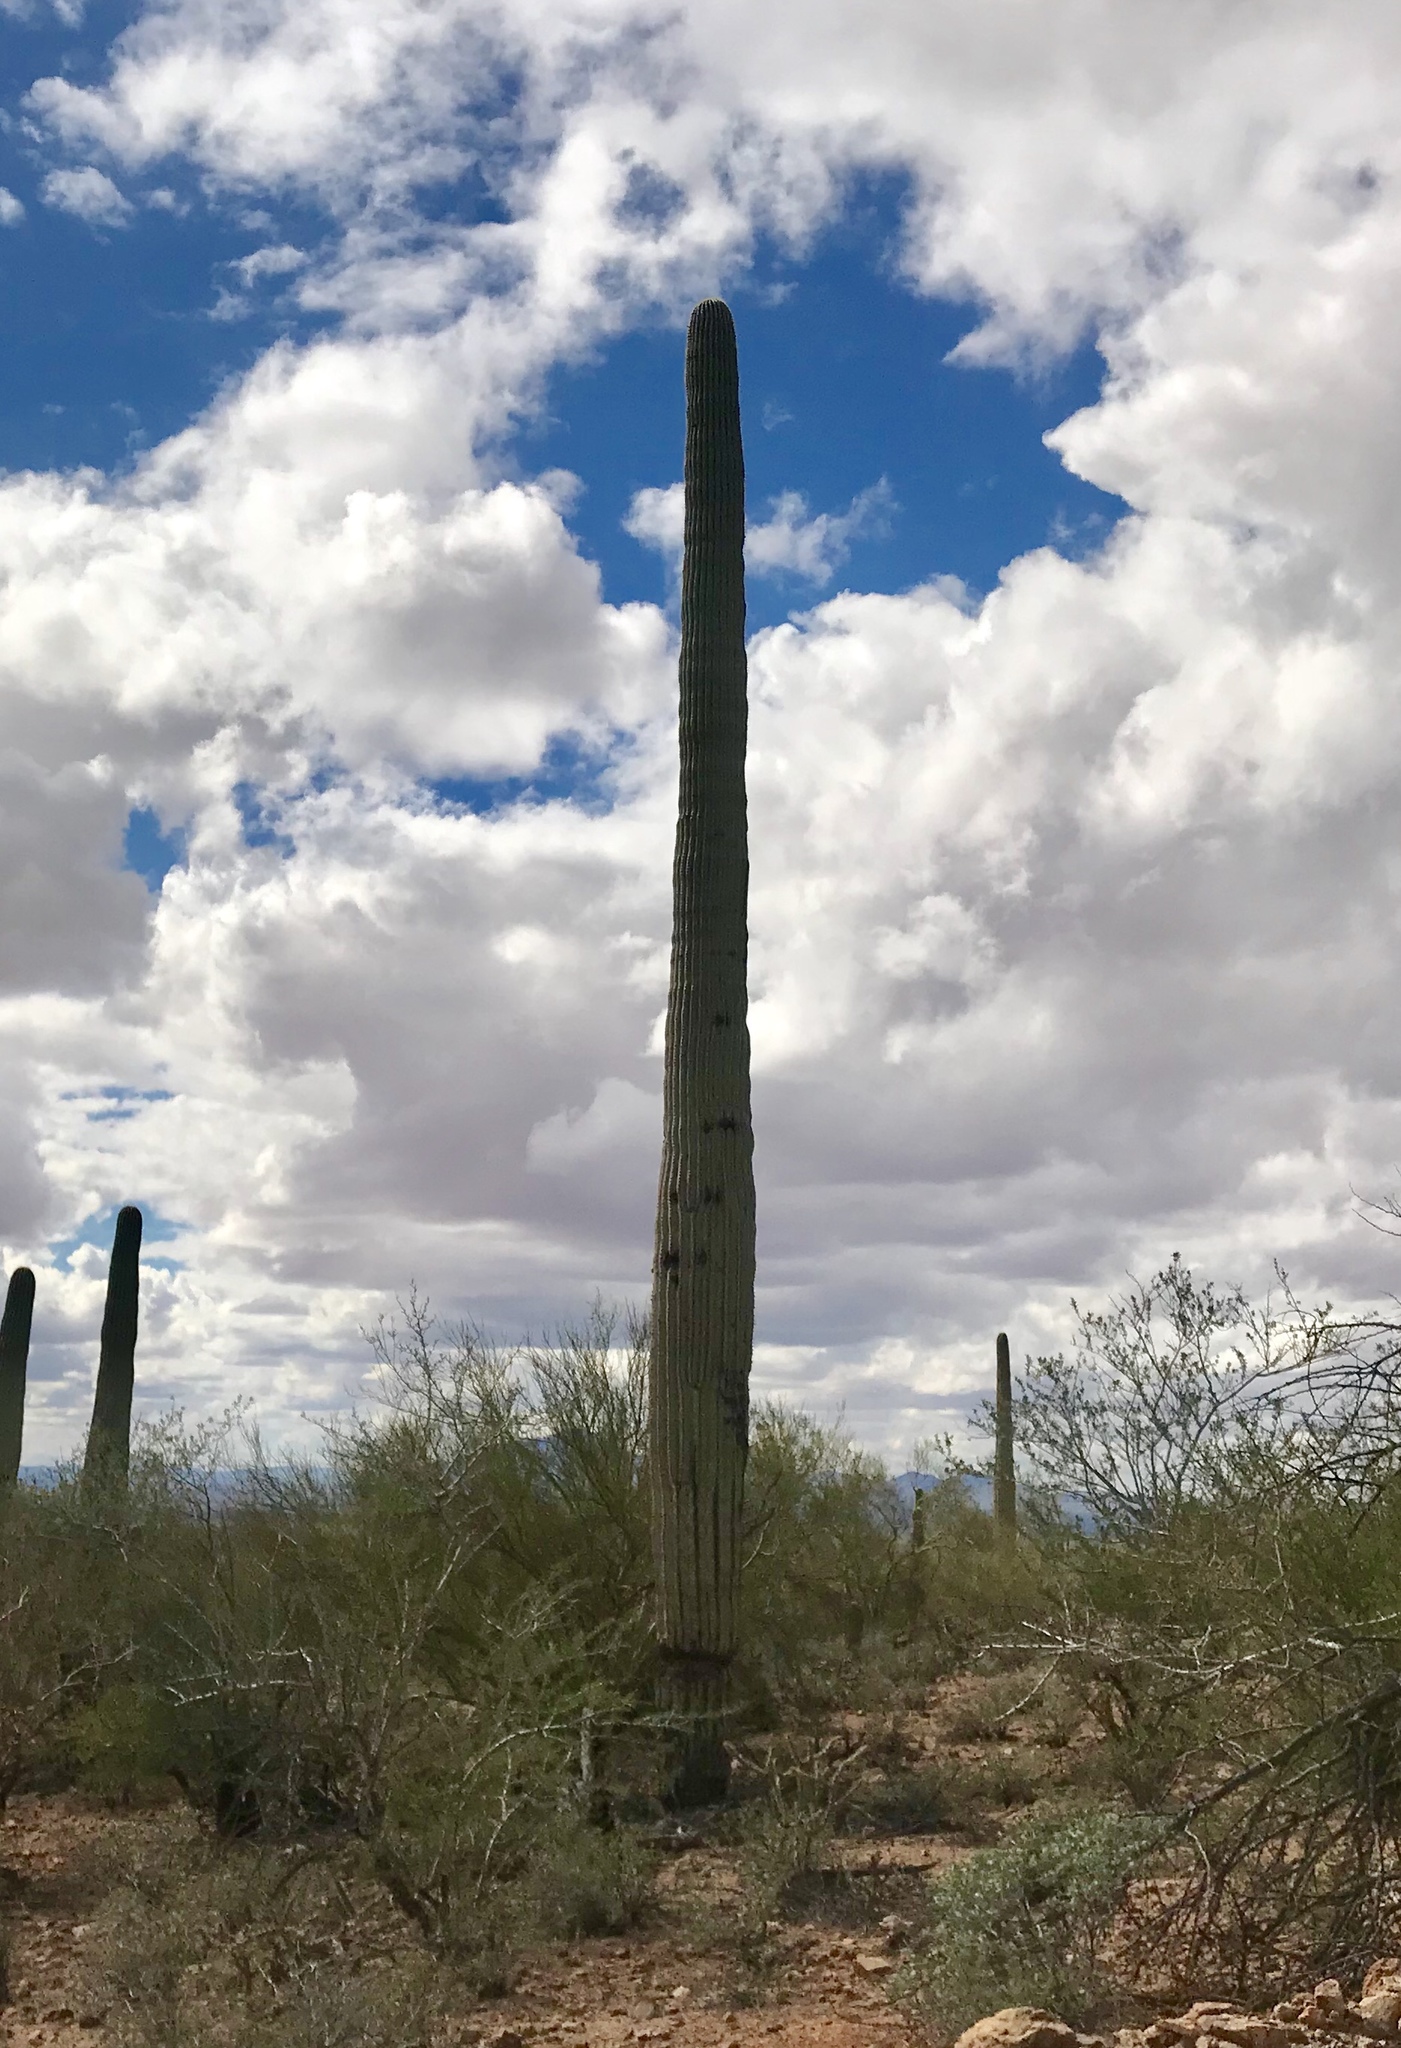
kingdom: Plantae
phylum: Tracheophyta
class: Magnoliopsida
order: Caryophyllales
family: Cactaceae
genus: Carnegiea
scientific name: Carnegiea gigantea
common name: Saguaro
